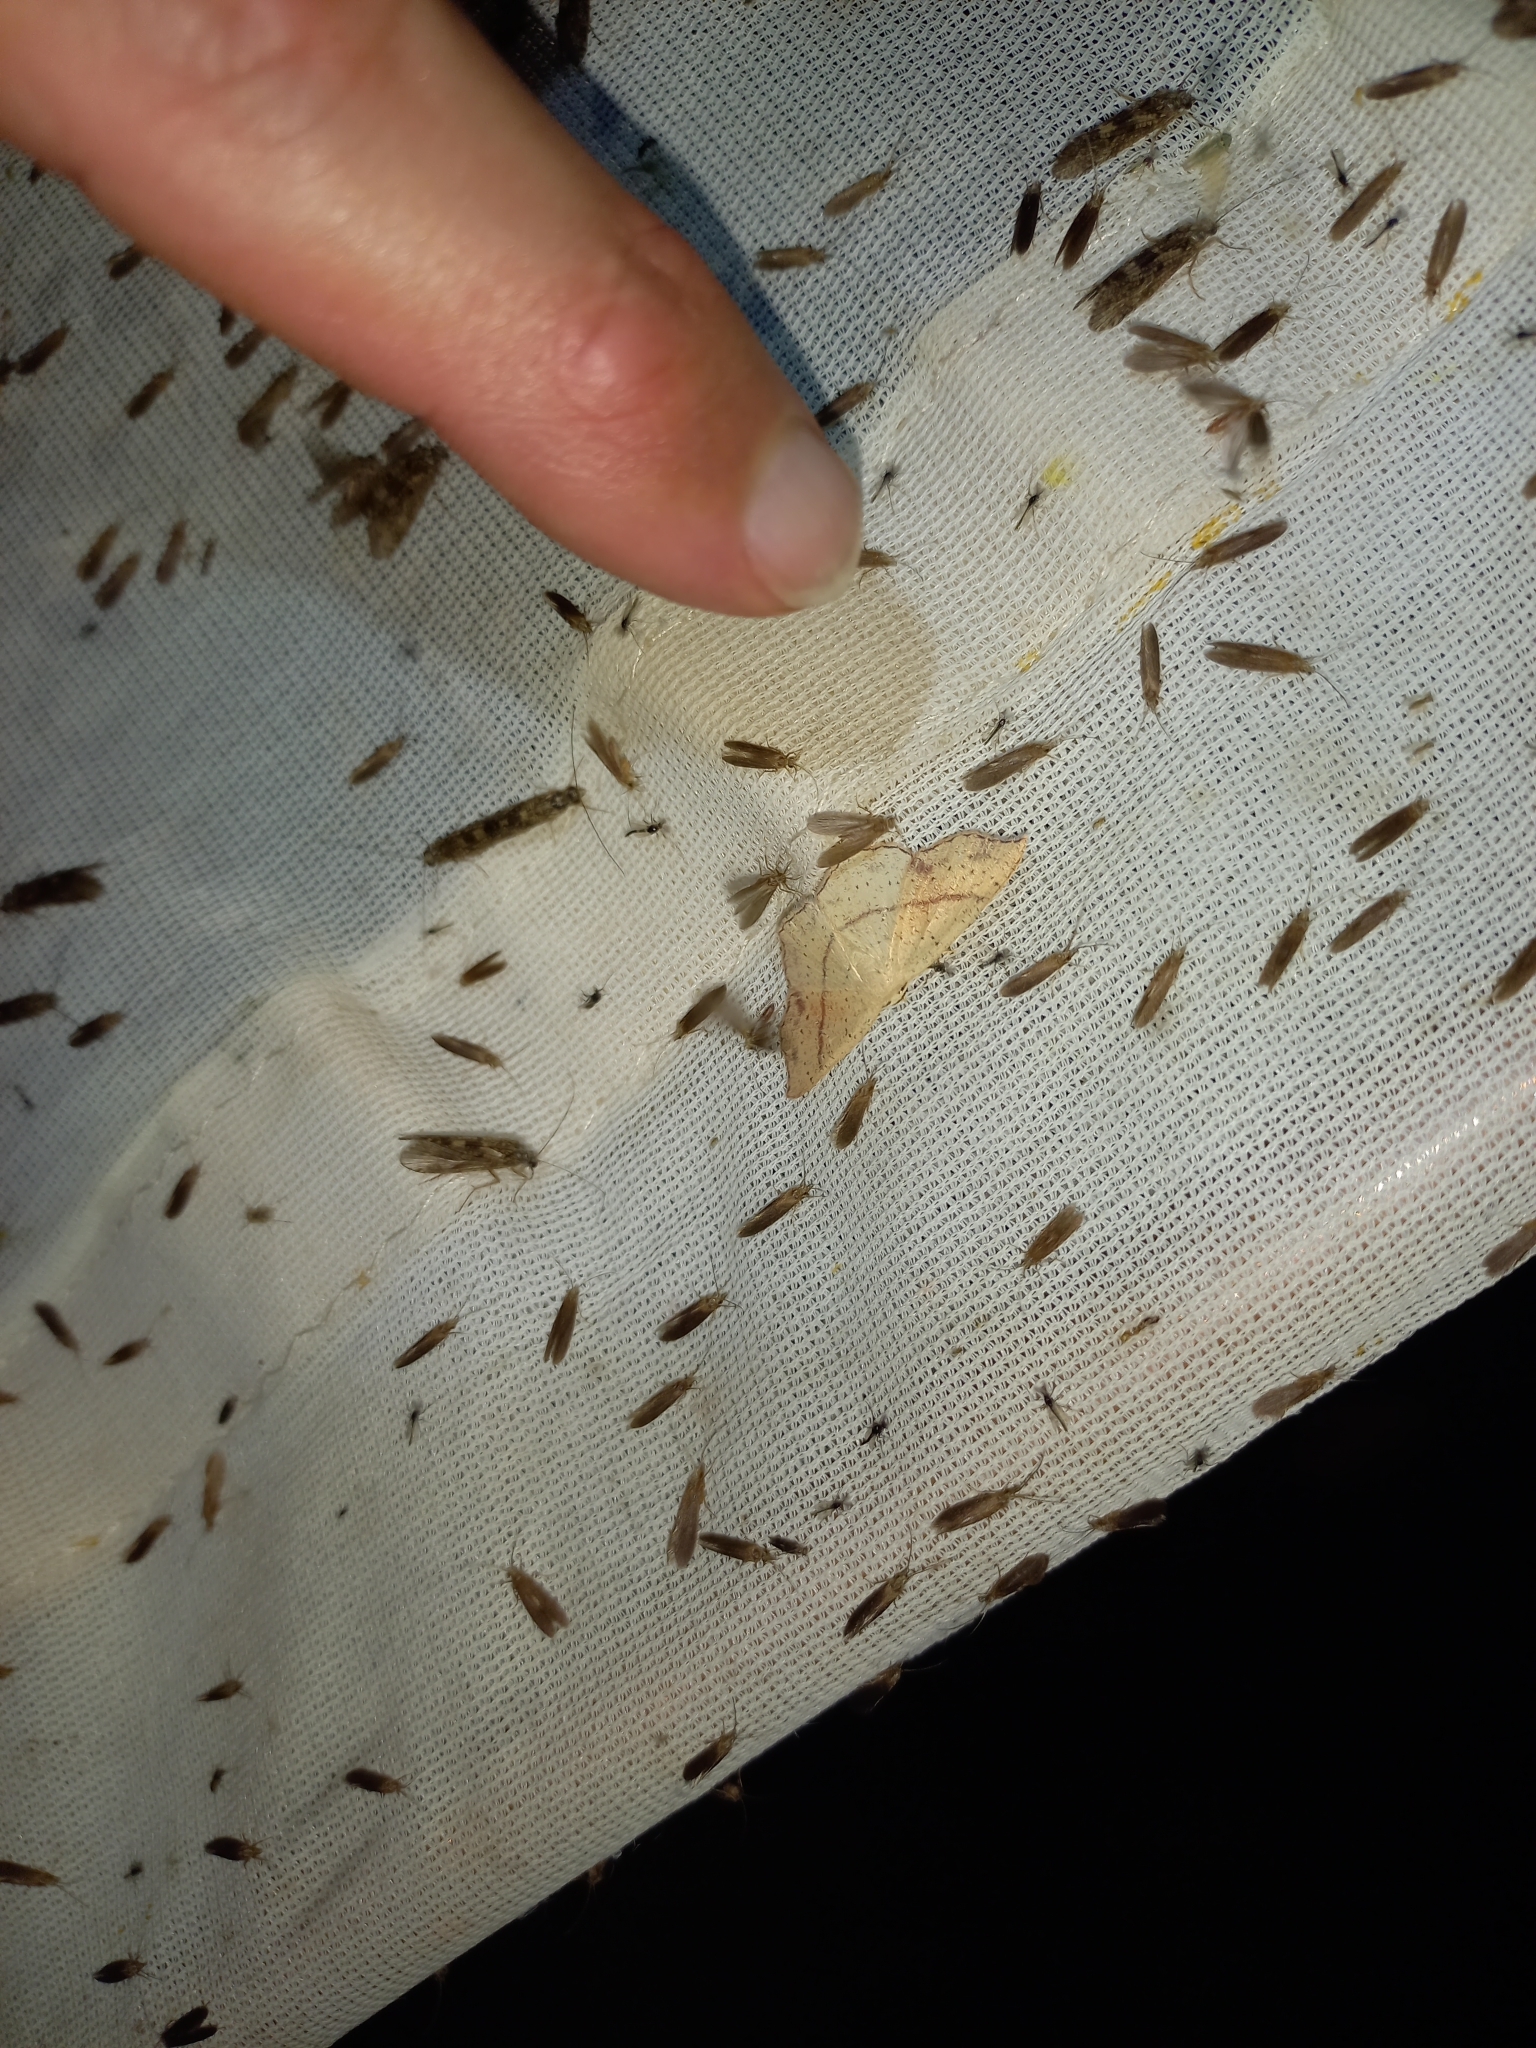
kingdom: Animalia
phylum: Arthropoda
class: Insecta
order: Lepidoptera
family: Geometridae
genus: Cyclophora
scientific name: Cyclophora punctaria
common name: Maiden's blush
